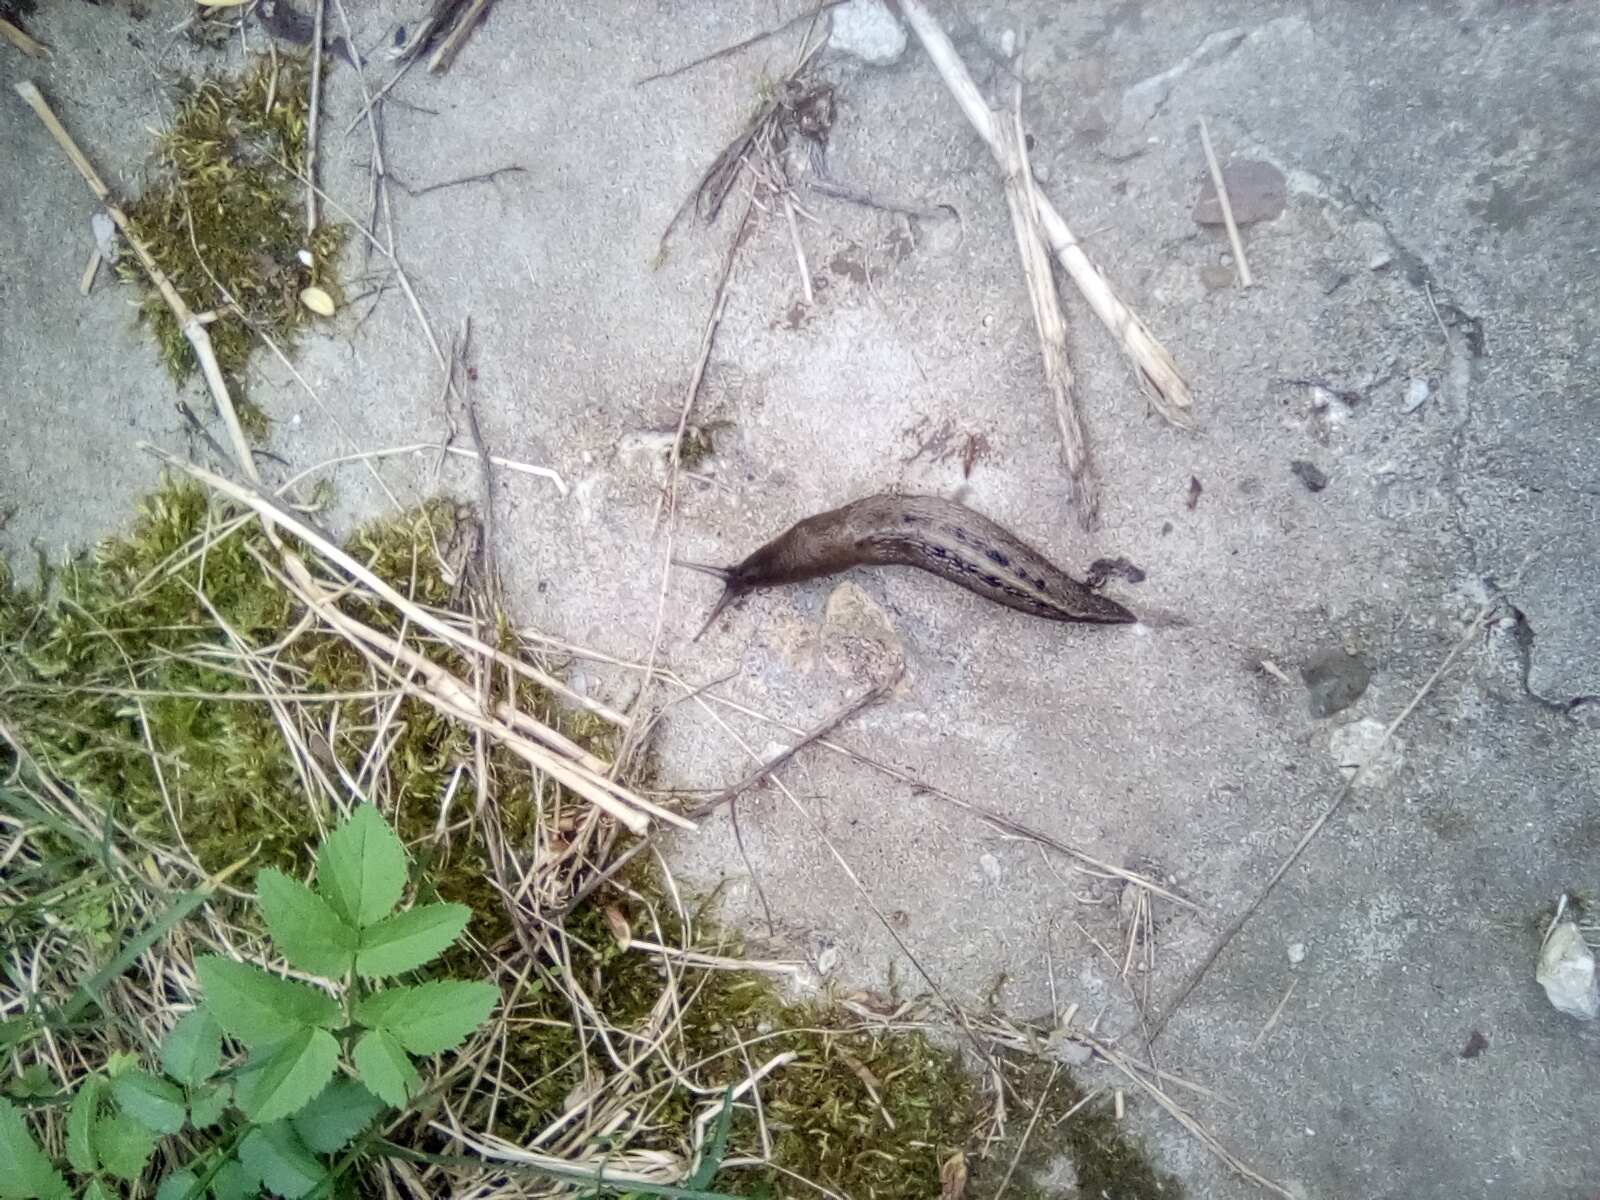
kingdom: Animalia
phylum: Mollusca
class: Gastropoda
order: Stylommatophora
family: Limacidae
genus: Limax
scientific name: Limax cinereoniger
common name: Ash-black slug
